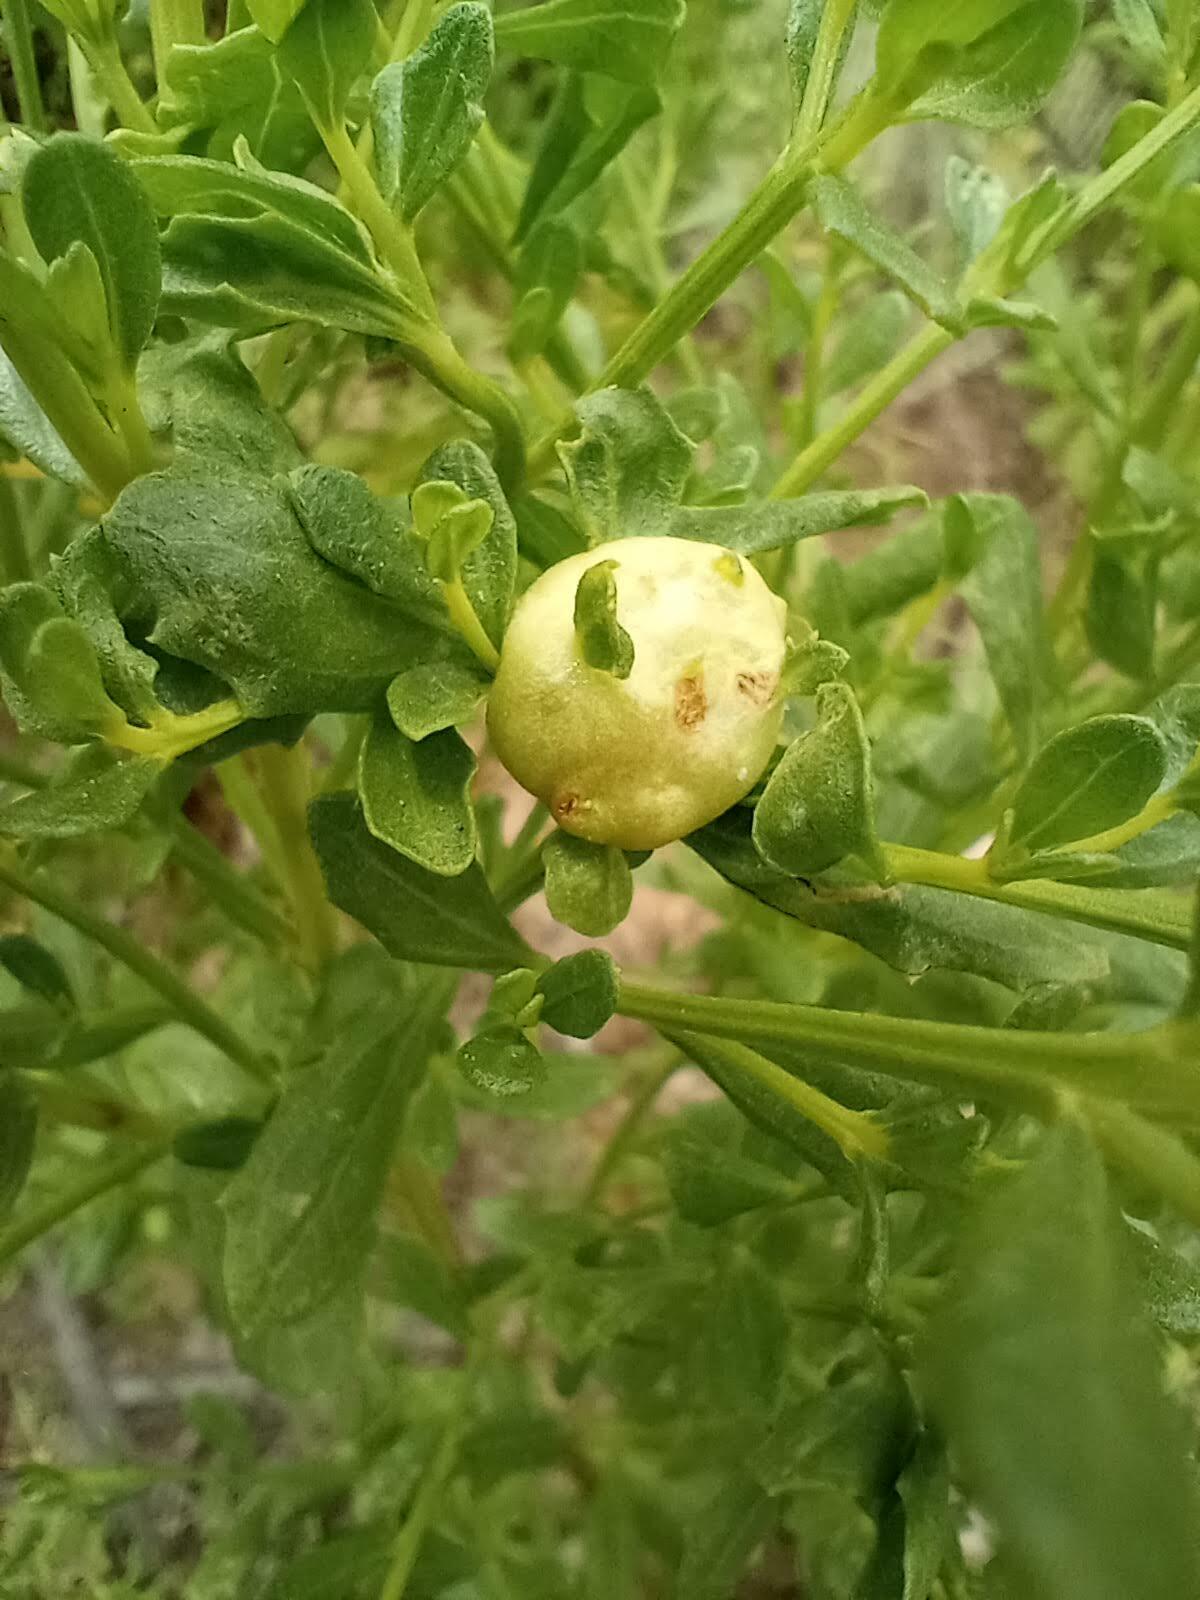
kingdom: Plantae
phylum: Tracheophyta
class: Magnoliopsida
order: Asterales
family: Asteraceae
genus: Baccharis
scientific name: Baccharis pilularis
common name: Coyotebrush
